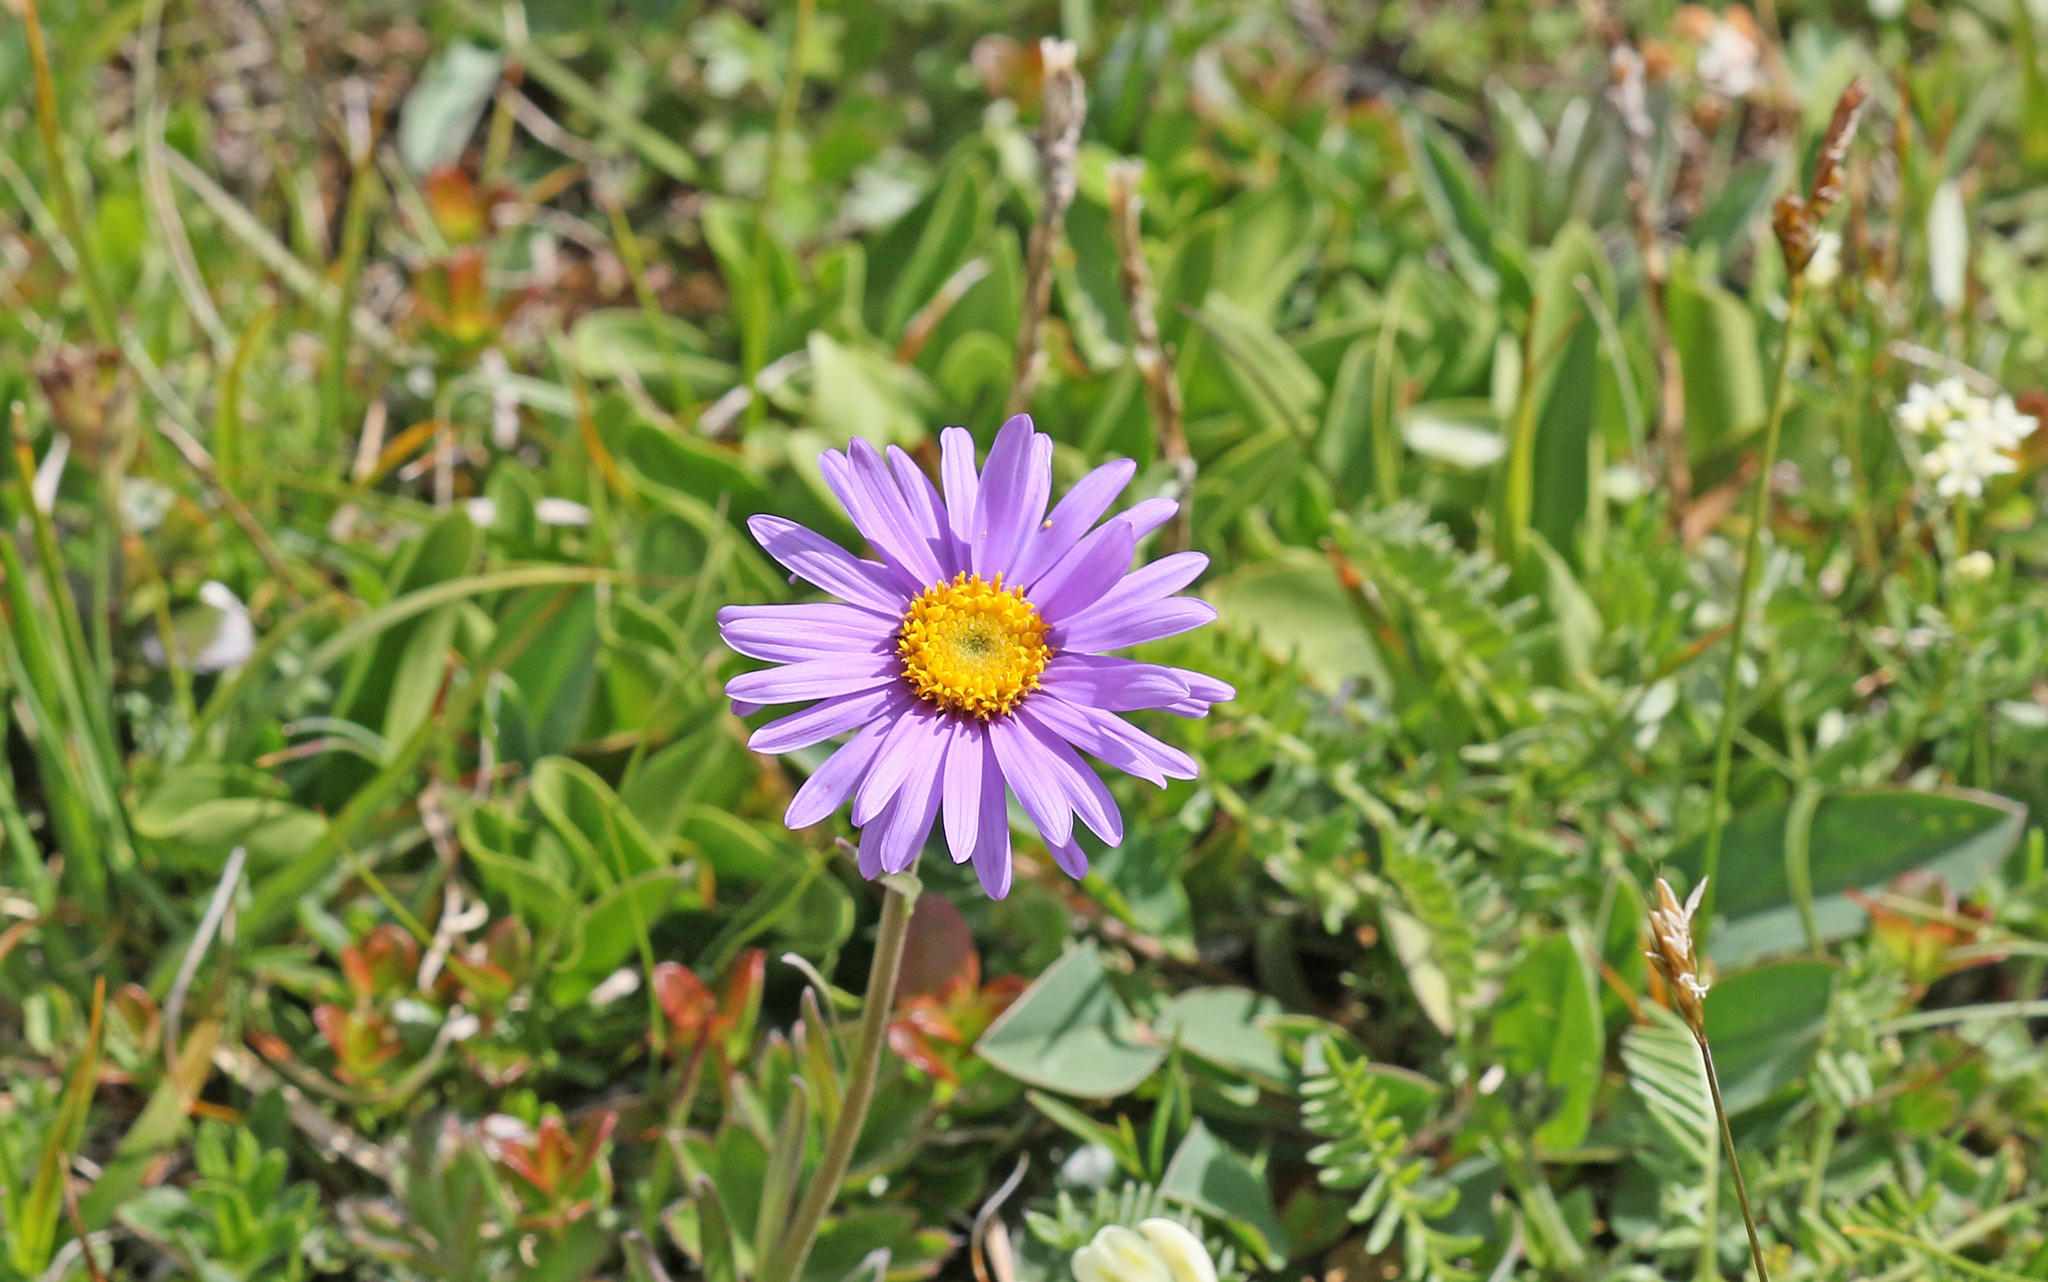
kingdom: Plantae
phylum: Tracheophyta
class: Magnoliopsida
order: Asterales
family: Asteraceae
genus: Aster
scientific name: Aster alpinus
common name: Alpine aster
